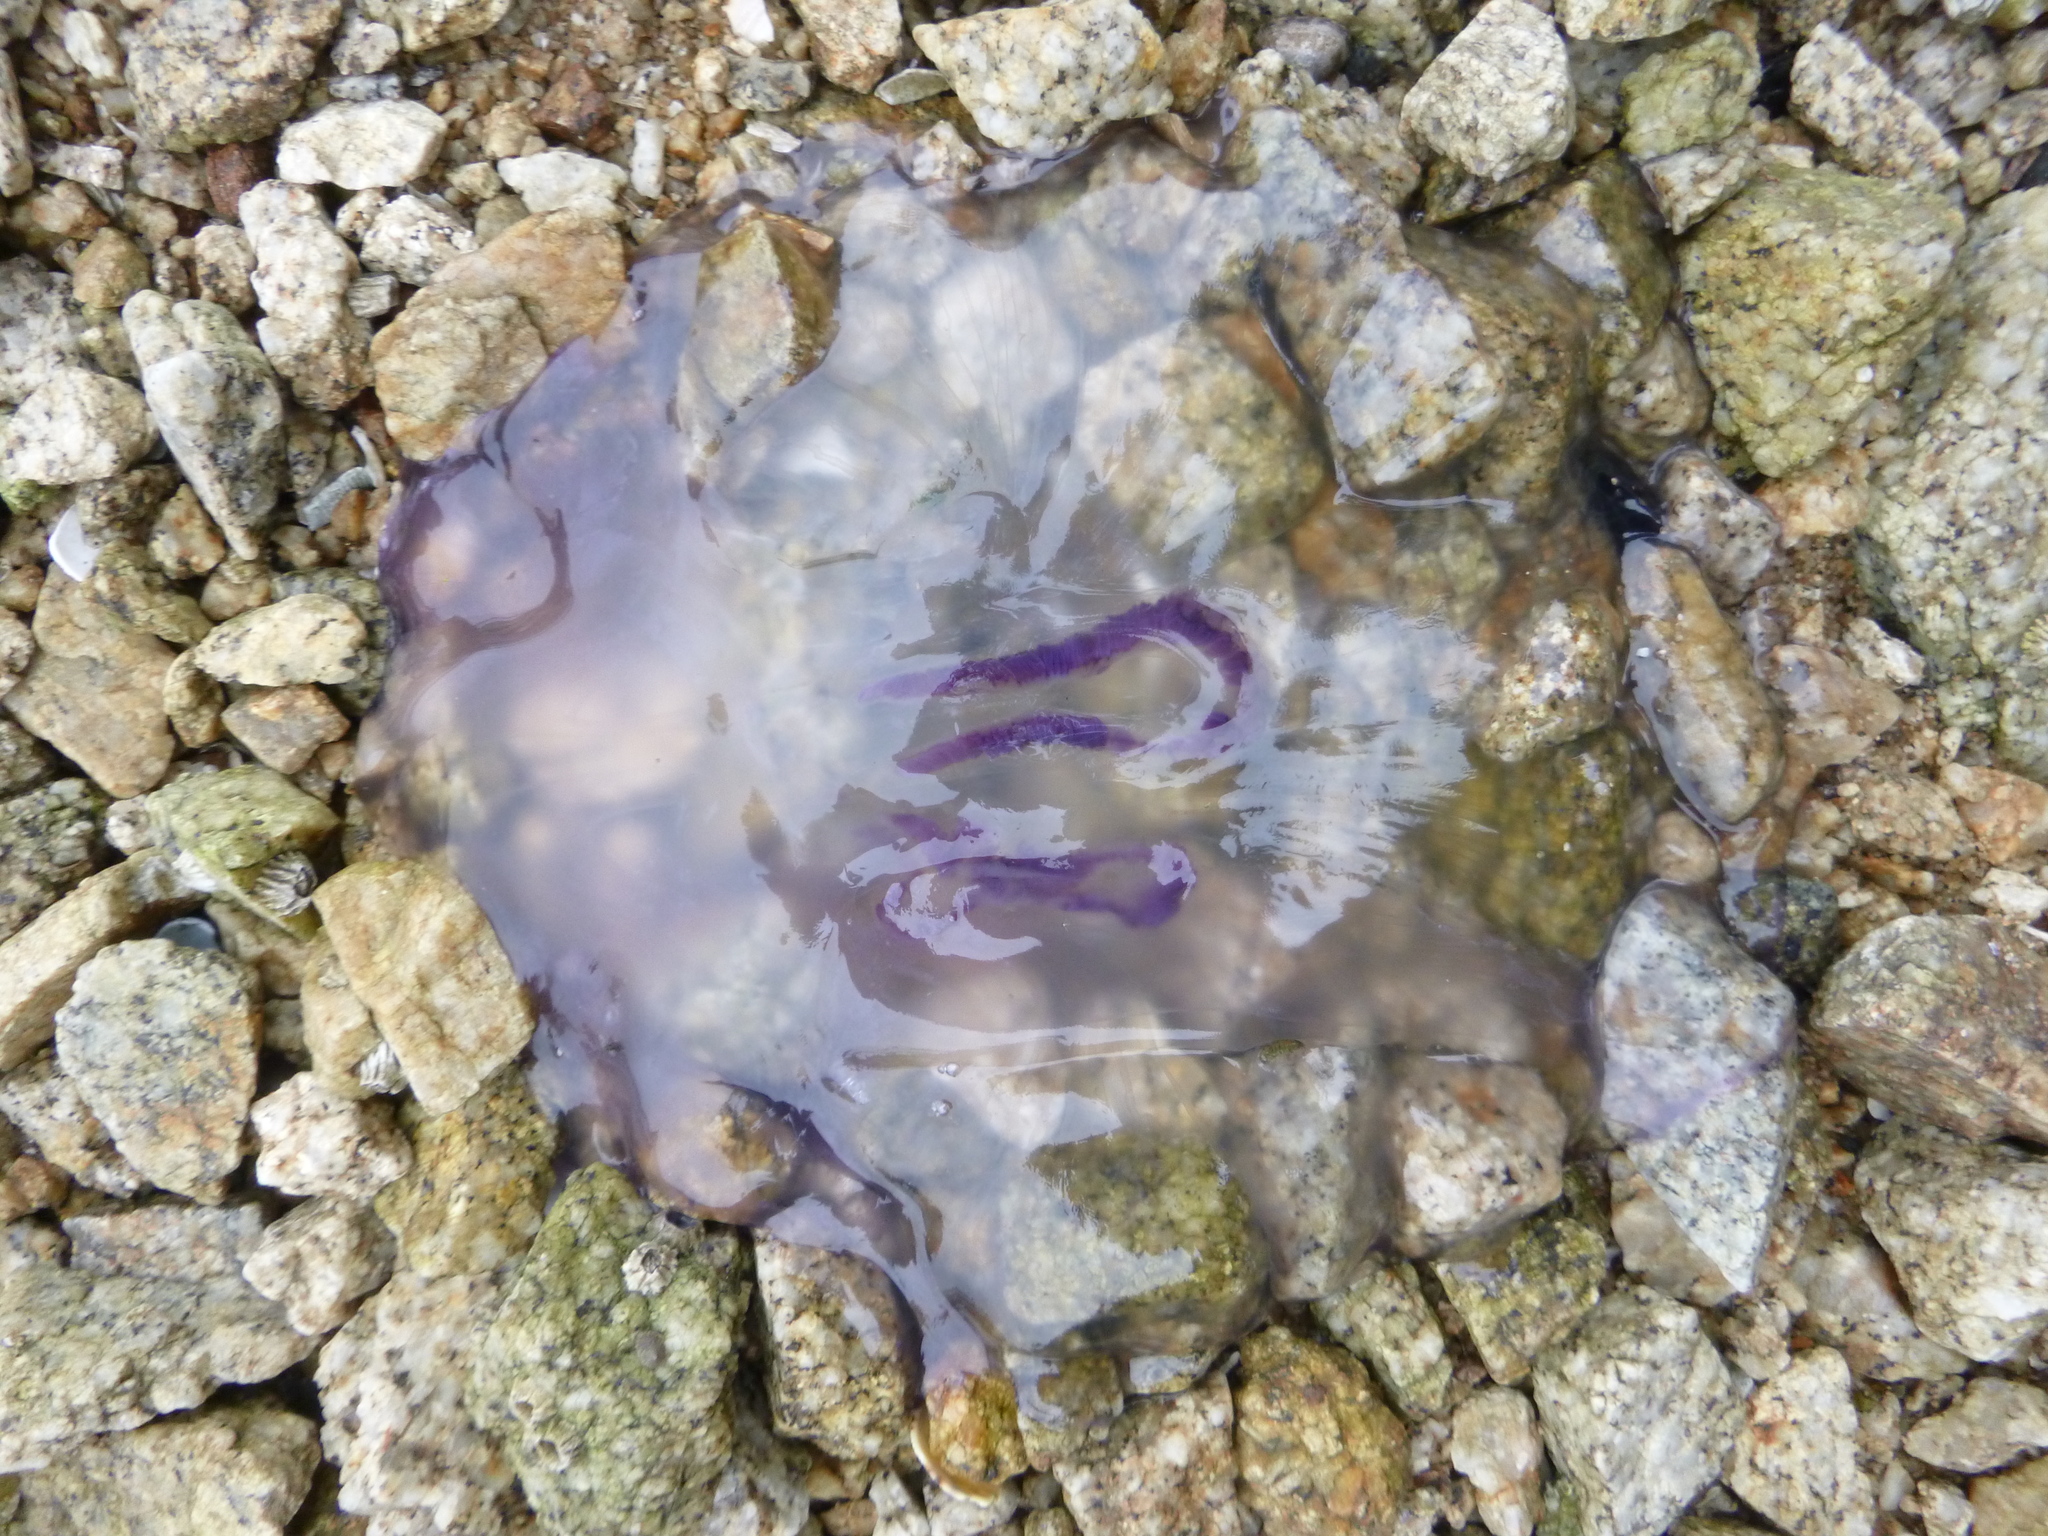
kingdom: Animalia
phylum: Cnidaria
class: Scyphozoa
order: Semaeostomeae
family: Ulmaridae
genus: Aurelia
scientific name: Aurelia labiata
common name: Pacific moon jelly
